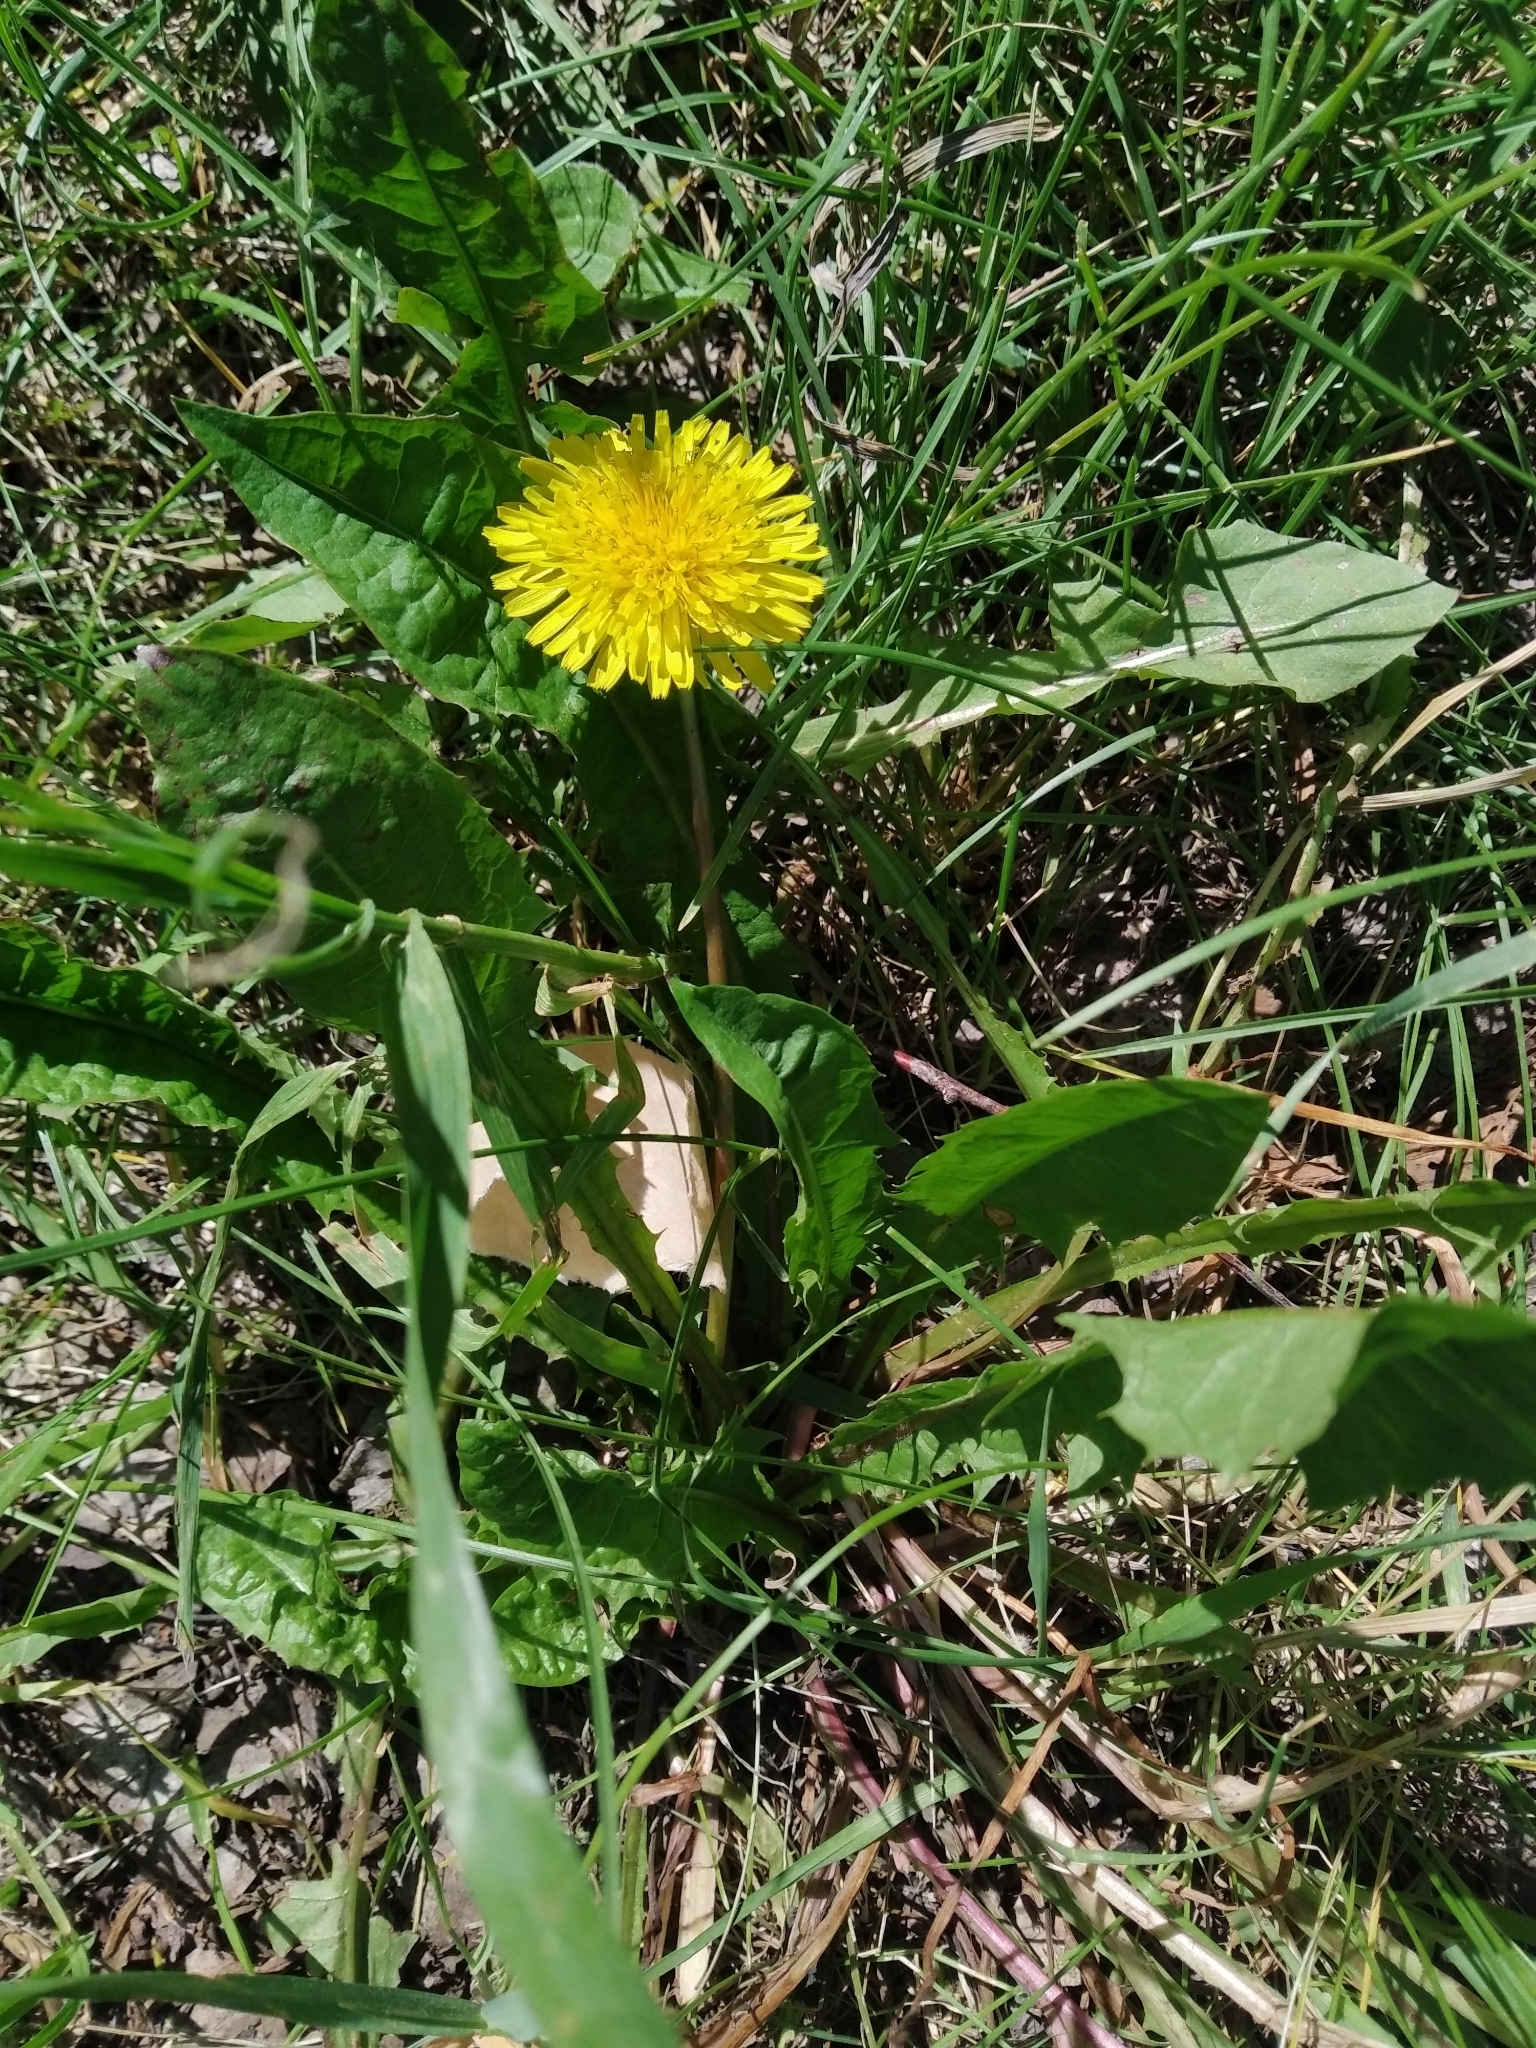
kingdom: Plantae
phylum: Tracheophyta
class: Magnoliopsida
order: Asterales
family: Asteraceae
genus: Taraxacum
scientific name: Taraxacum officinale
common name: Common dandelion
